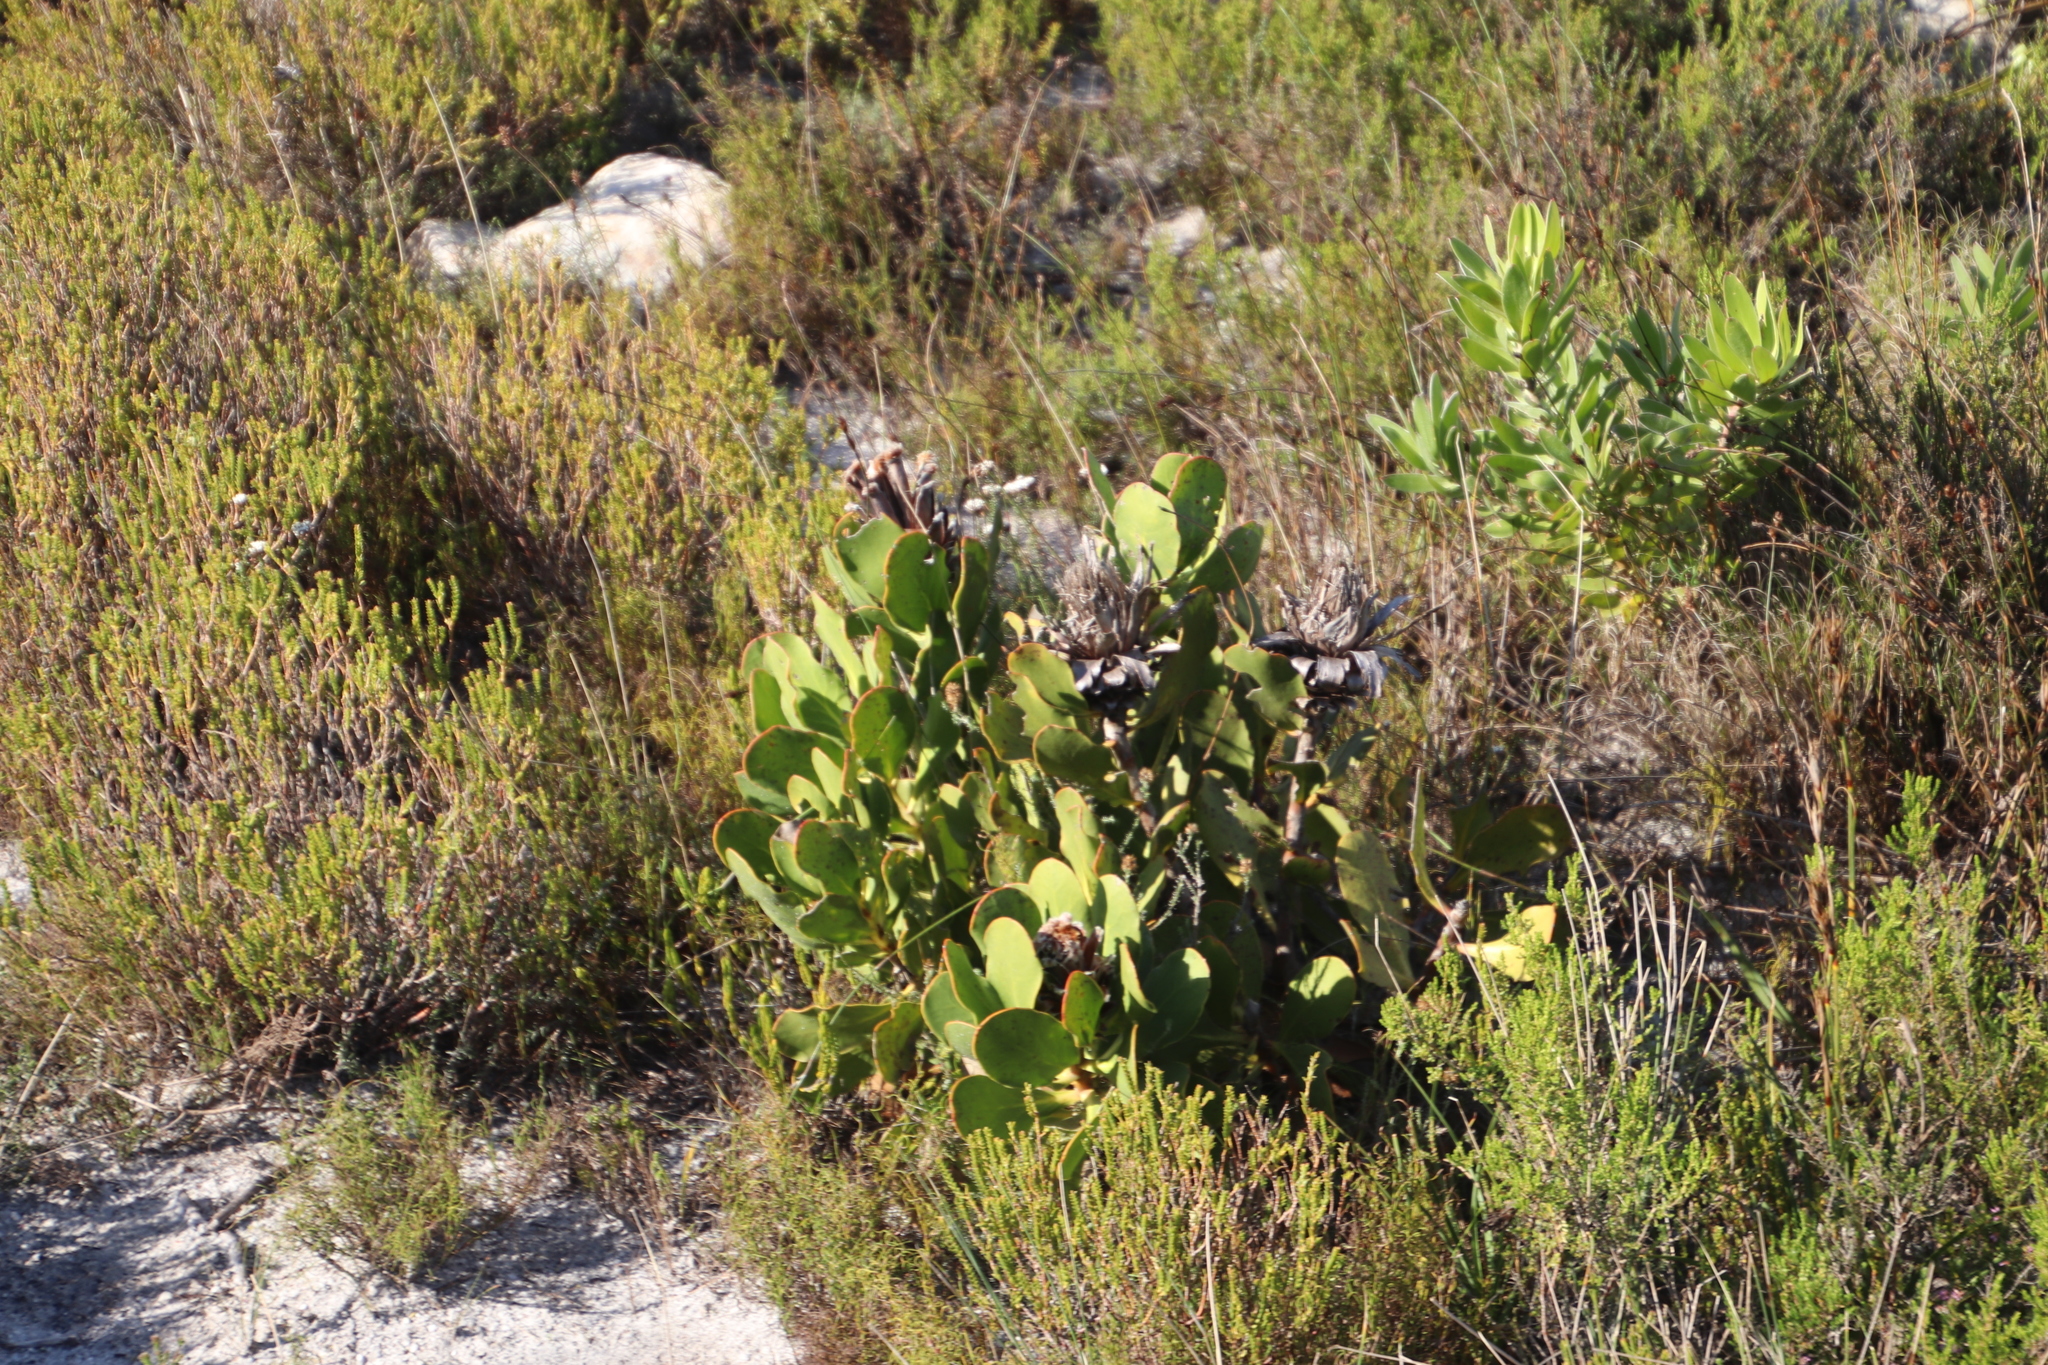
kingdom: Plantae
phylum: Tracheophyta
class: Magnoliopsida
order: Proteales
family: Proteaceae
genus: Protea
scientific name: Protea speciosa
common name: Brown-beard sugarbush
